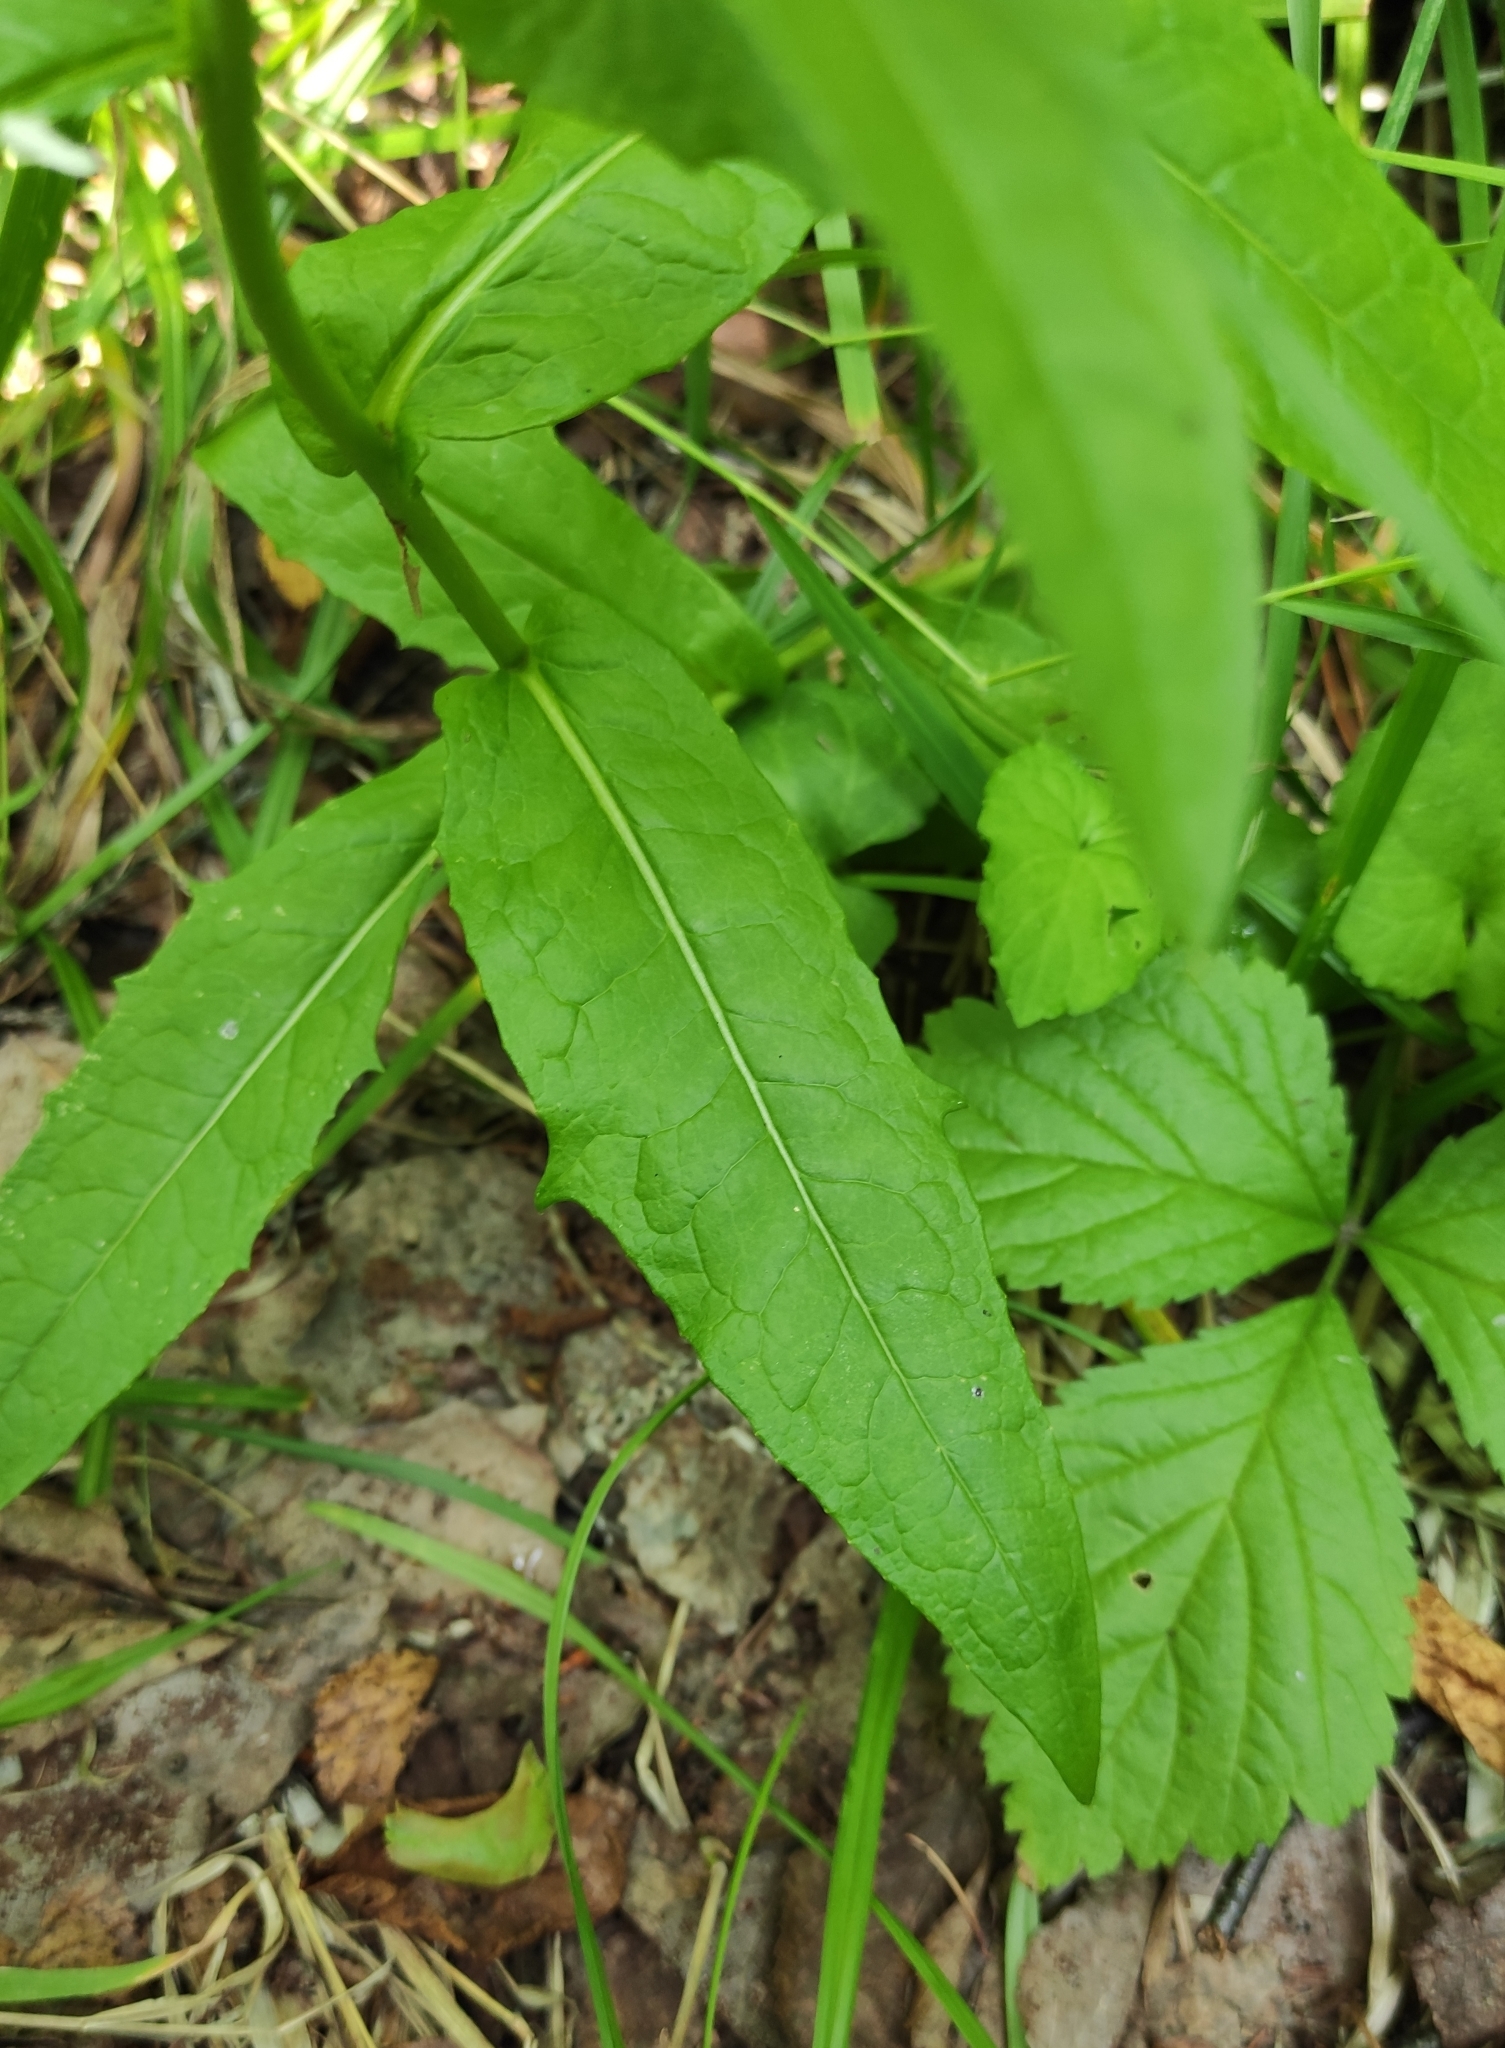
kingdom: Plantae
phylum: Tracheophyta
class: Magnoliopsida
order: Asterales
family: Asteraceae
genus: Lactuca
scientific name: Lactuca sibirica
